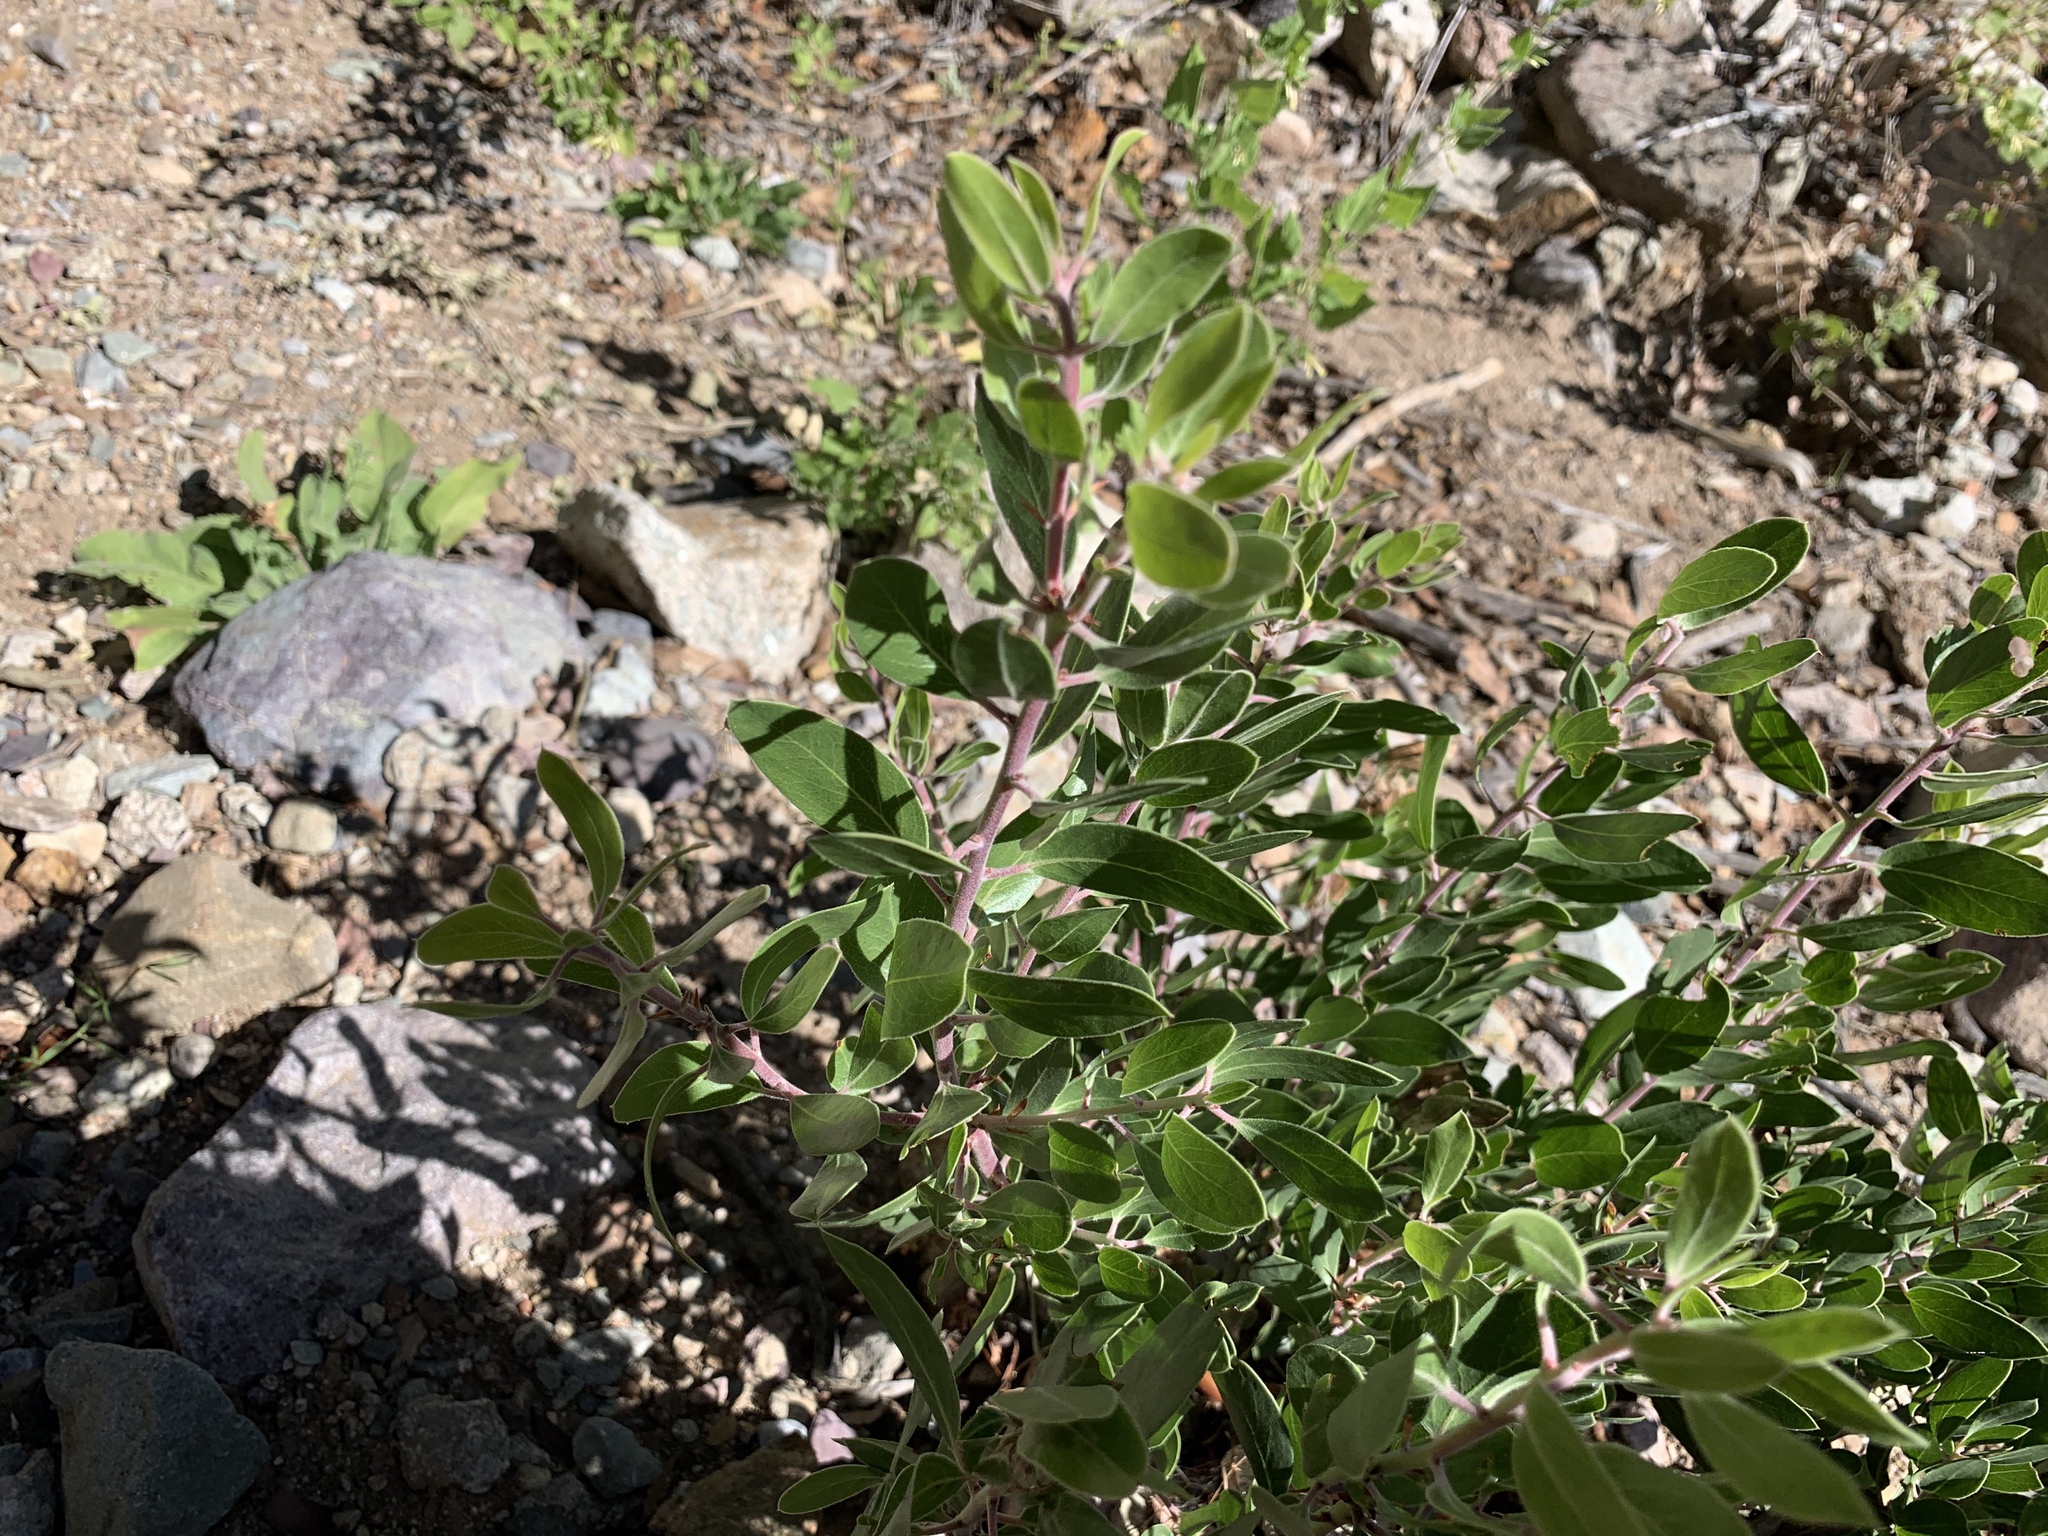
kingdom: Plantae
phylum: Tracheophyta
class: Magnoliopsida
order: Ericales
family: Ericaceae
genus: Arctostaphylos
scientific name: Arctostaphylos pungens
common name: Mexican manzanita
